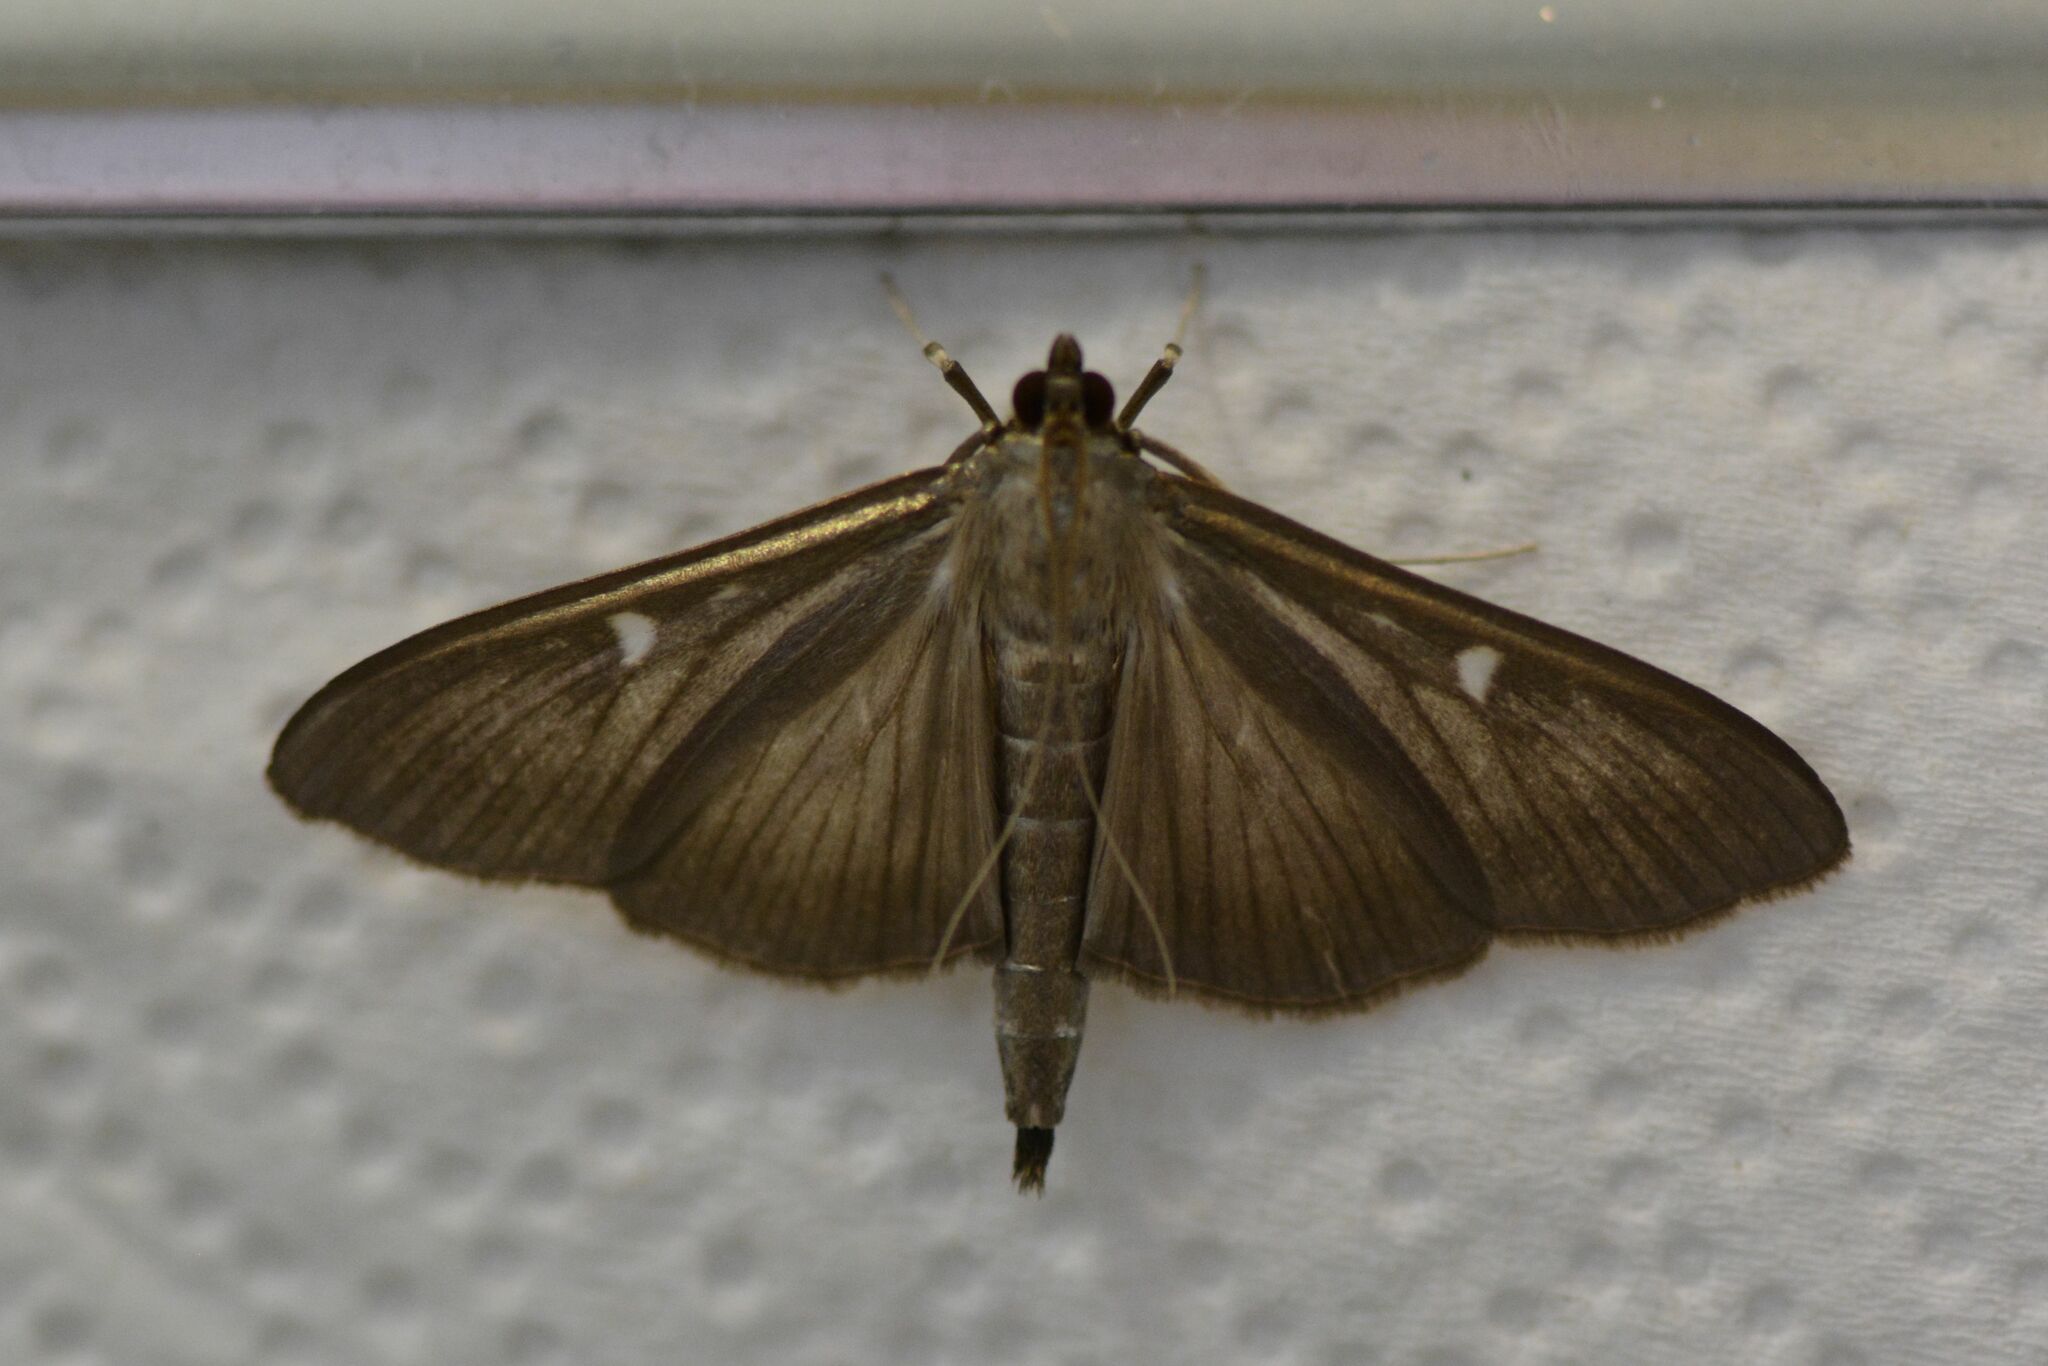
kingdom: Animalia
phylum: Arthropoda
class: Insecta
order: Lepidoptera
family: Crambidae
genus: Cydalima
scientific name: Cydalima perspectalis
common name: Box tree moth
